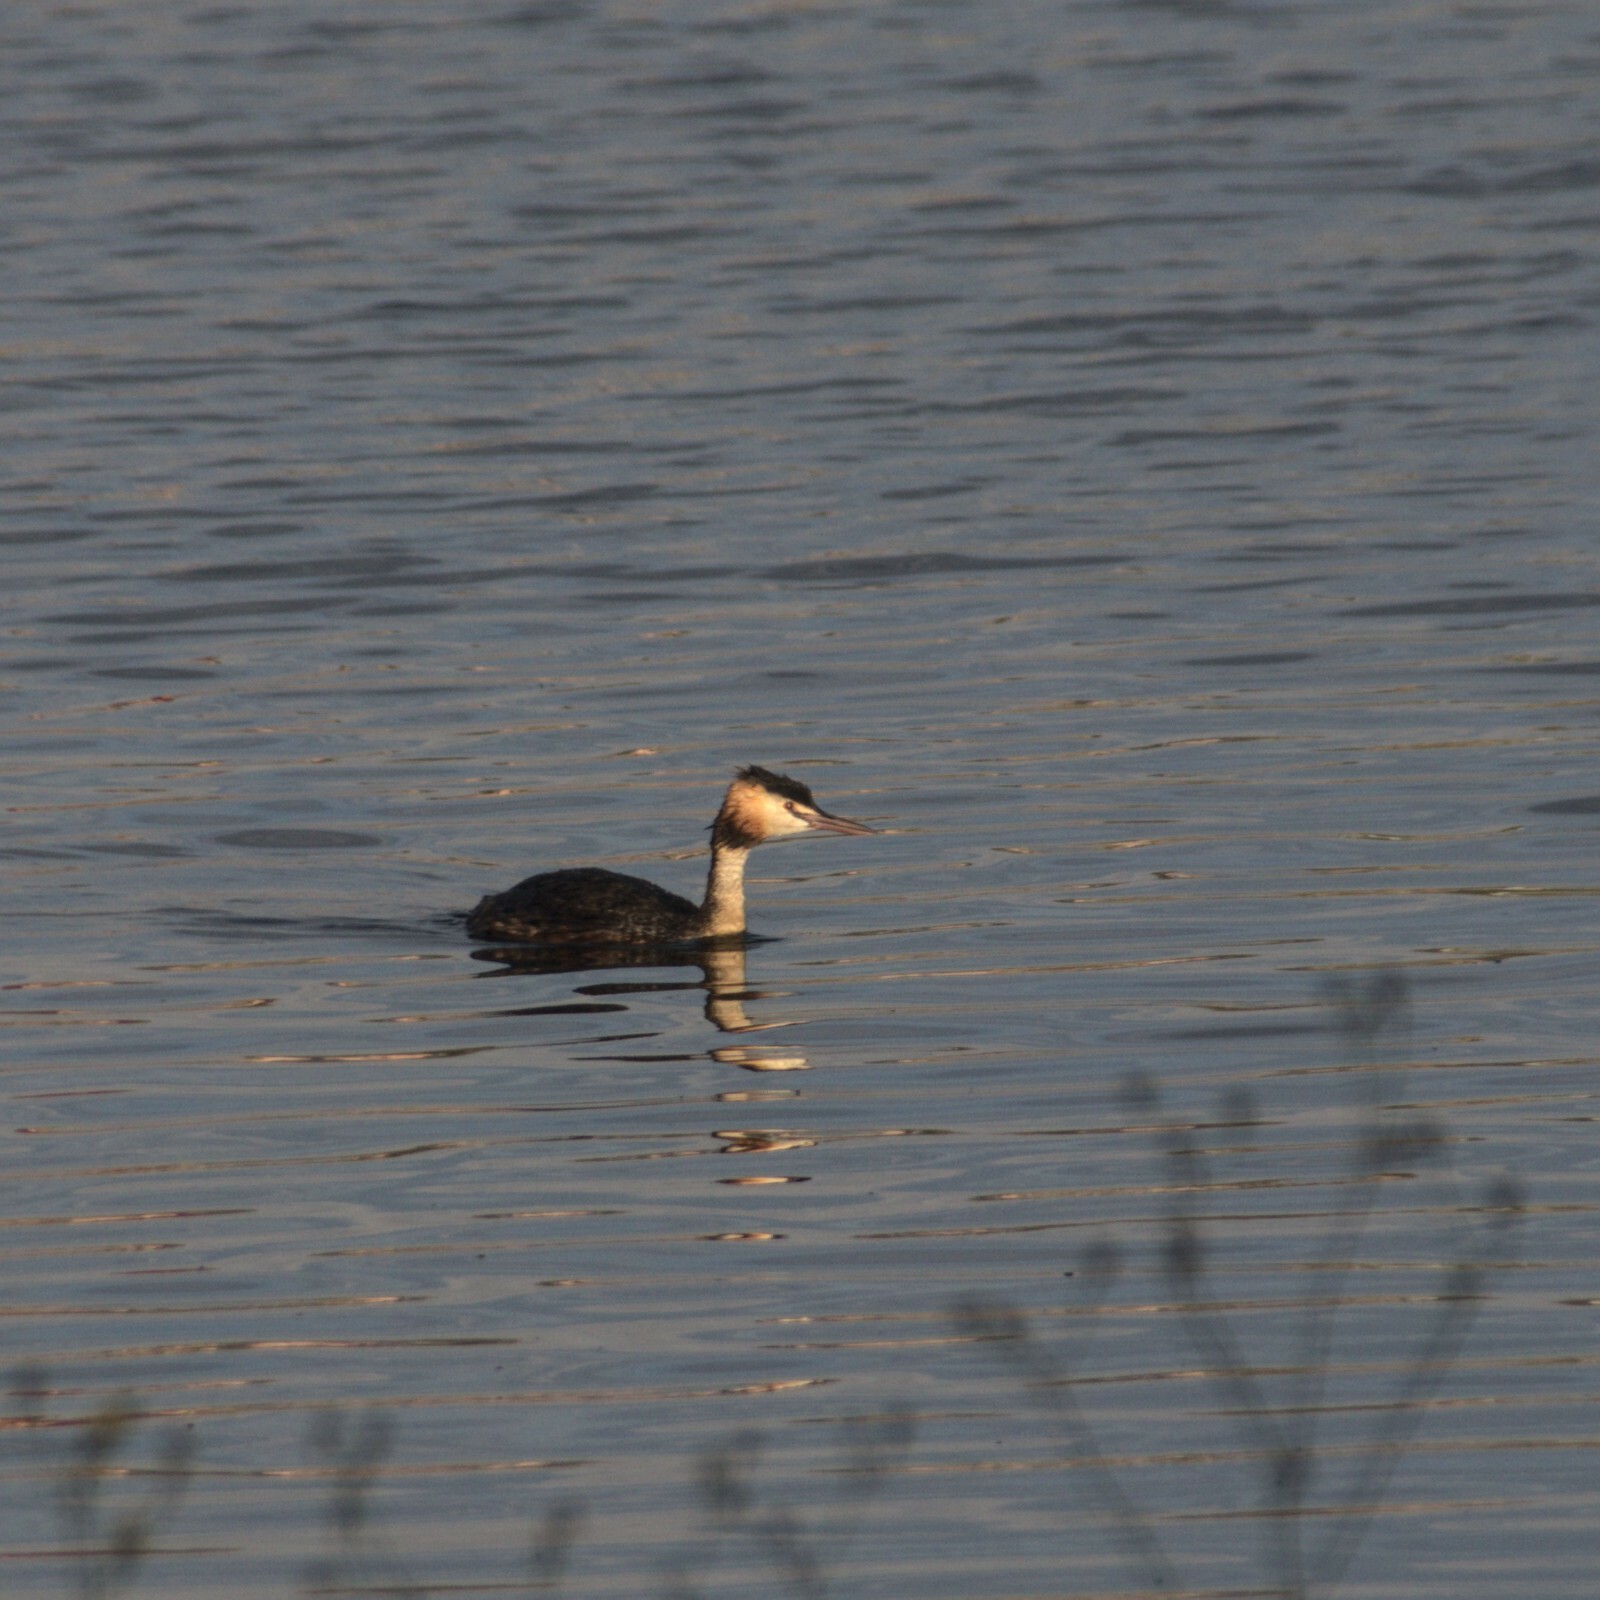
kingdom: Animalia
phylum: Chordata
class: Aves
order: Podicipediformes
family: Podicipedidae
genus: Podiceps
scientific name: Podiceps cristatus
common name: Great crested grebe
